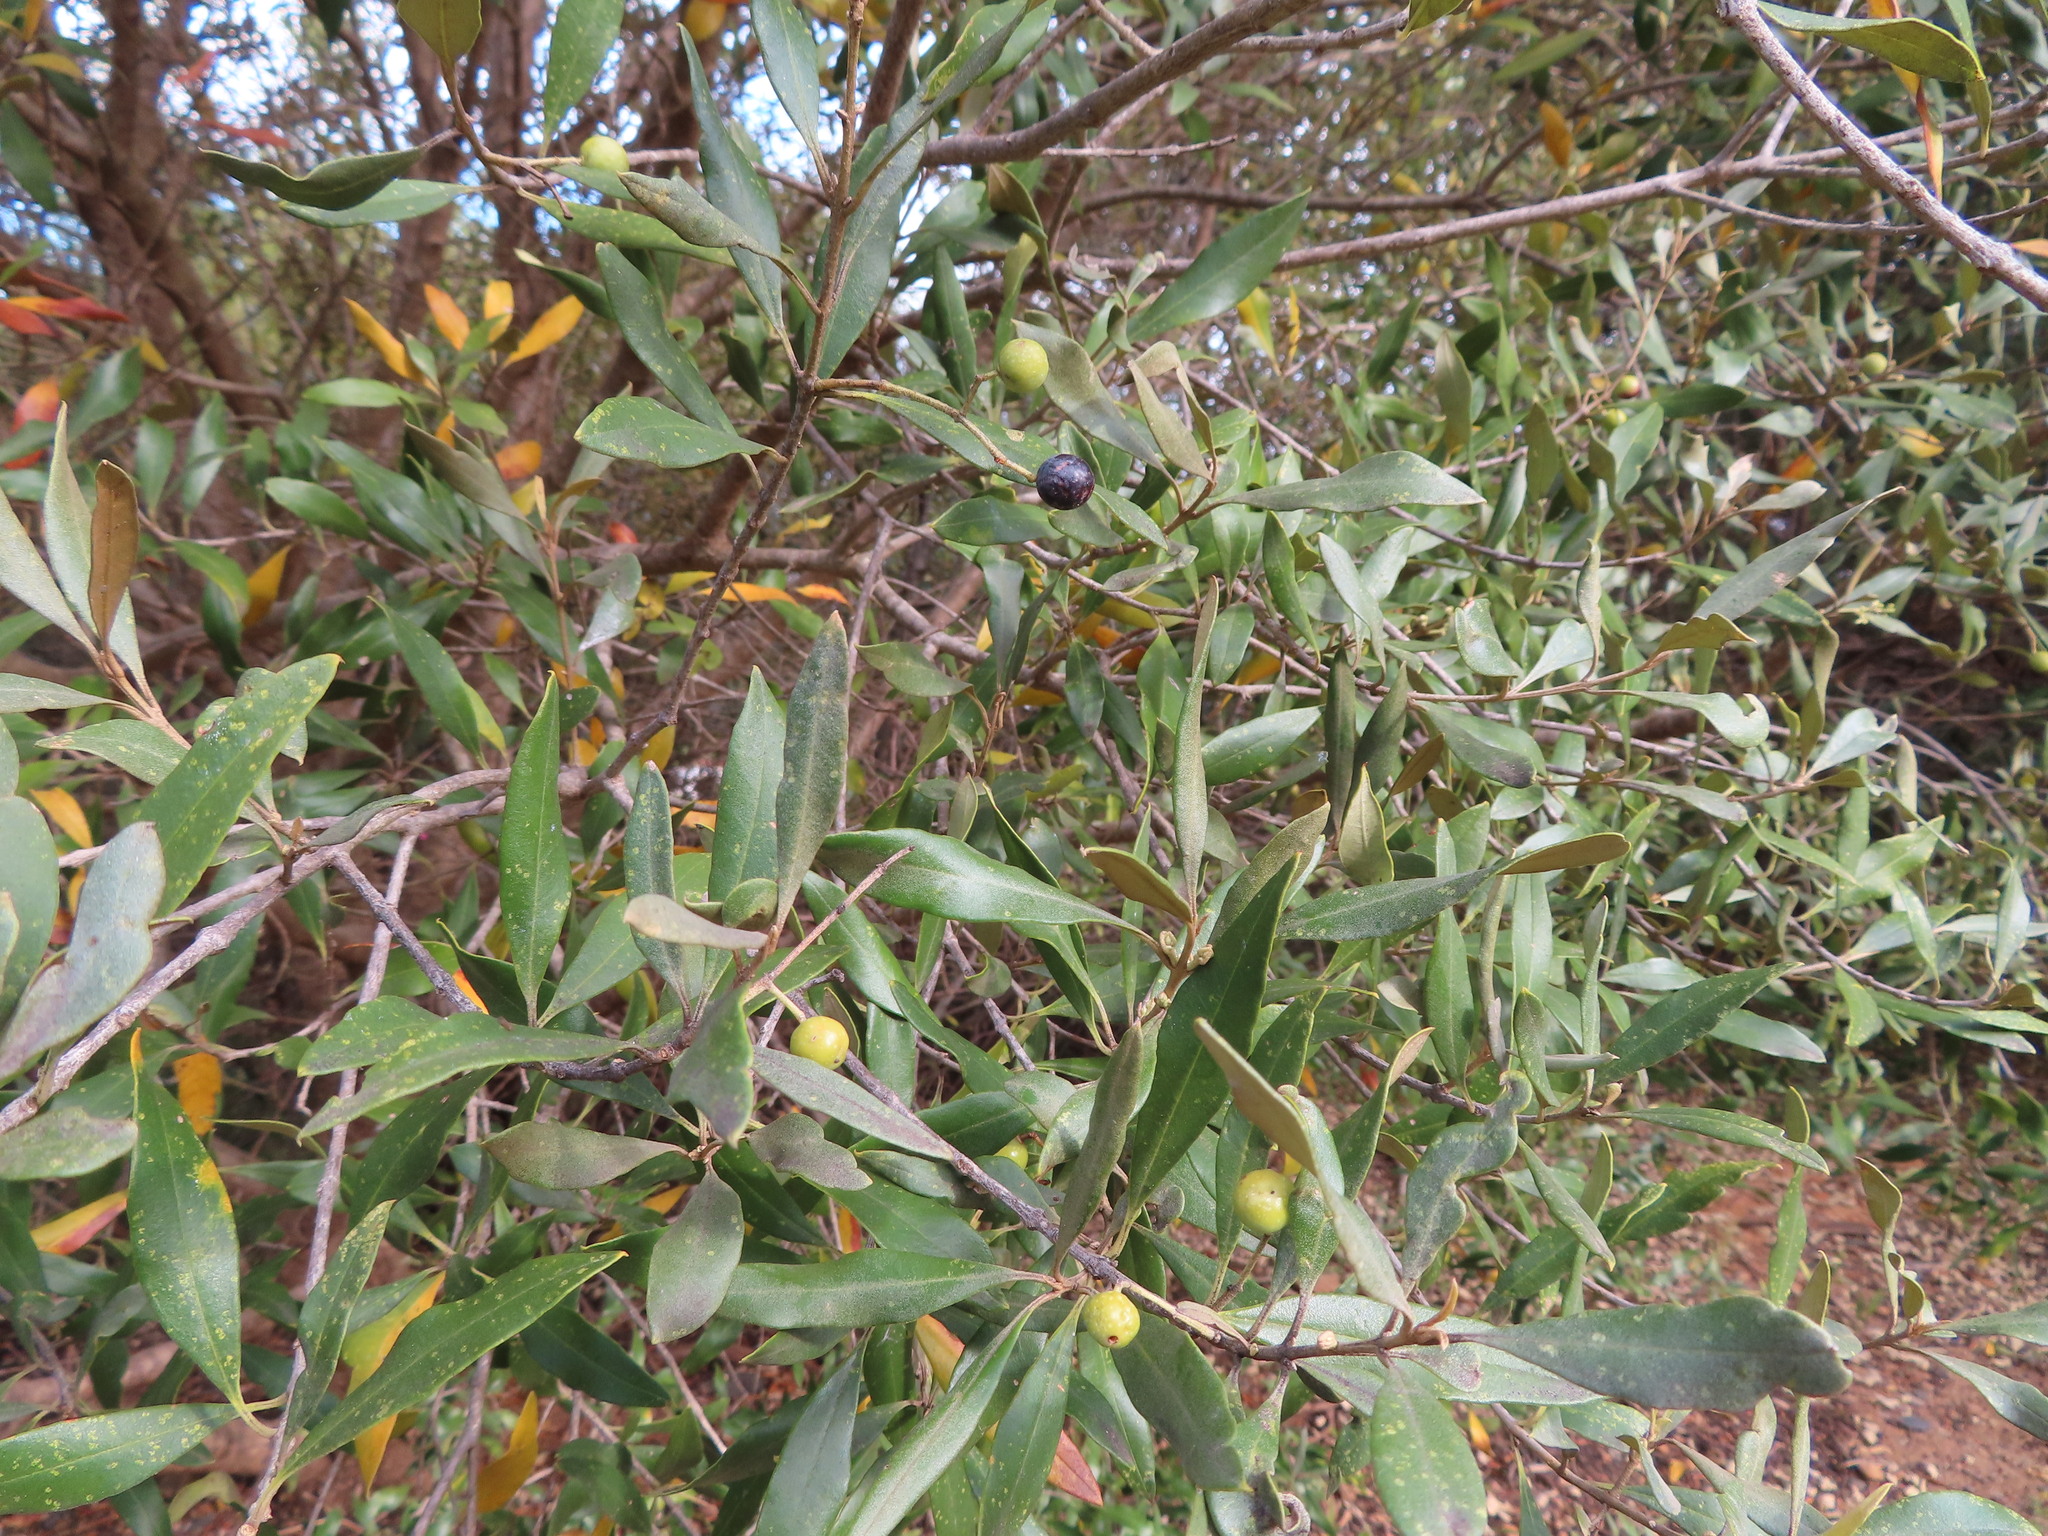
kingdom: Plantae
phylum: Tracheophyta
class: Magnoliopsida
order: Lamiales
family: Oleaceae
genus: Olea
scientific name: Olea europaea
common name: Olive
